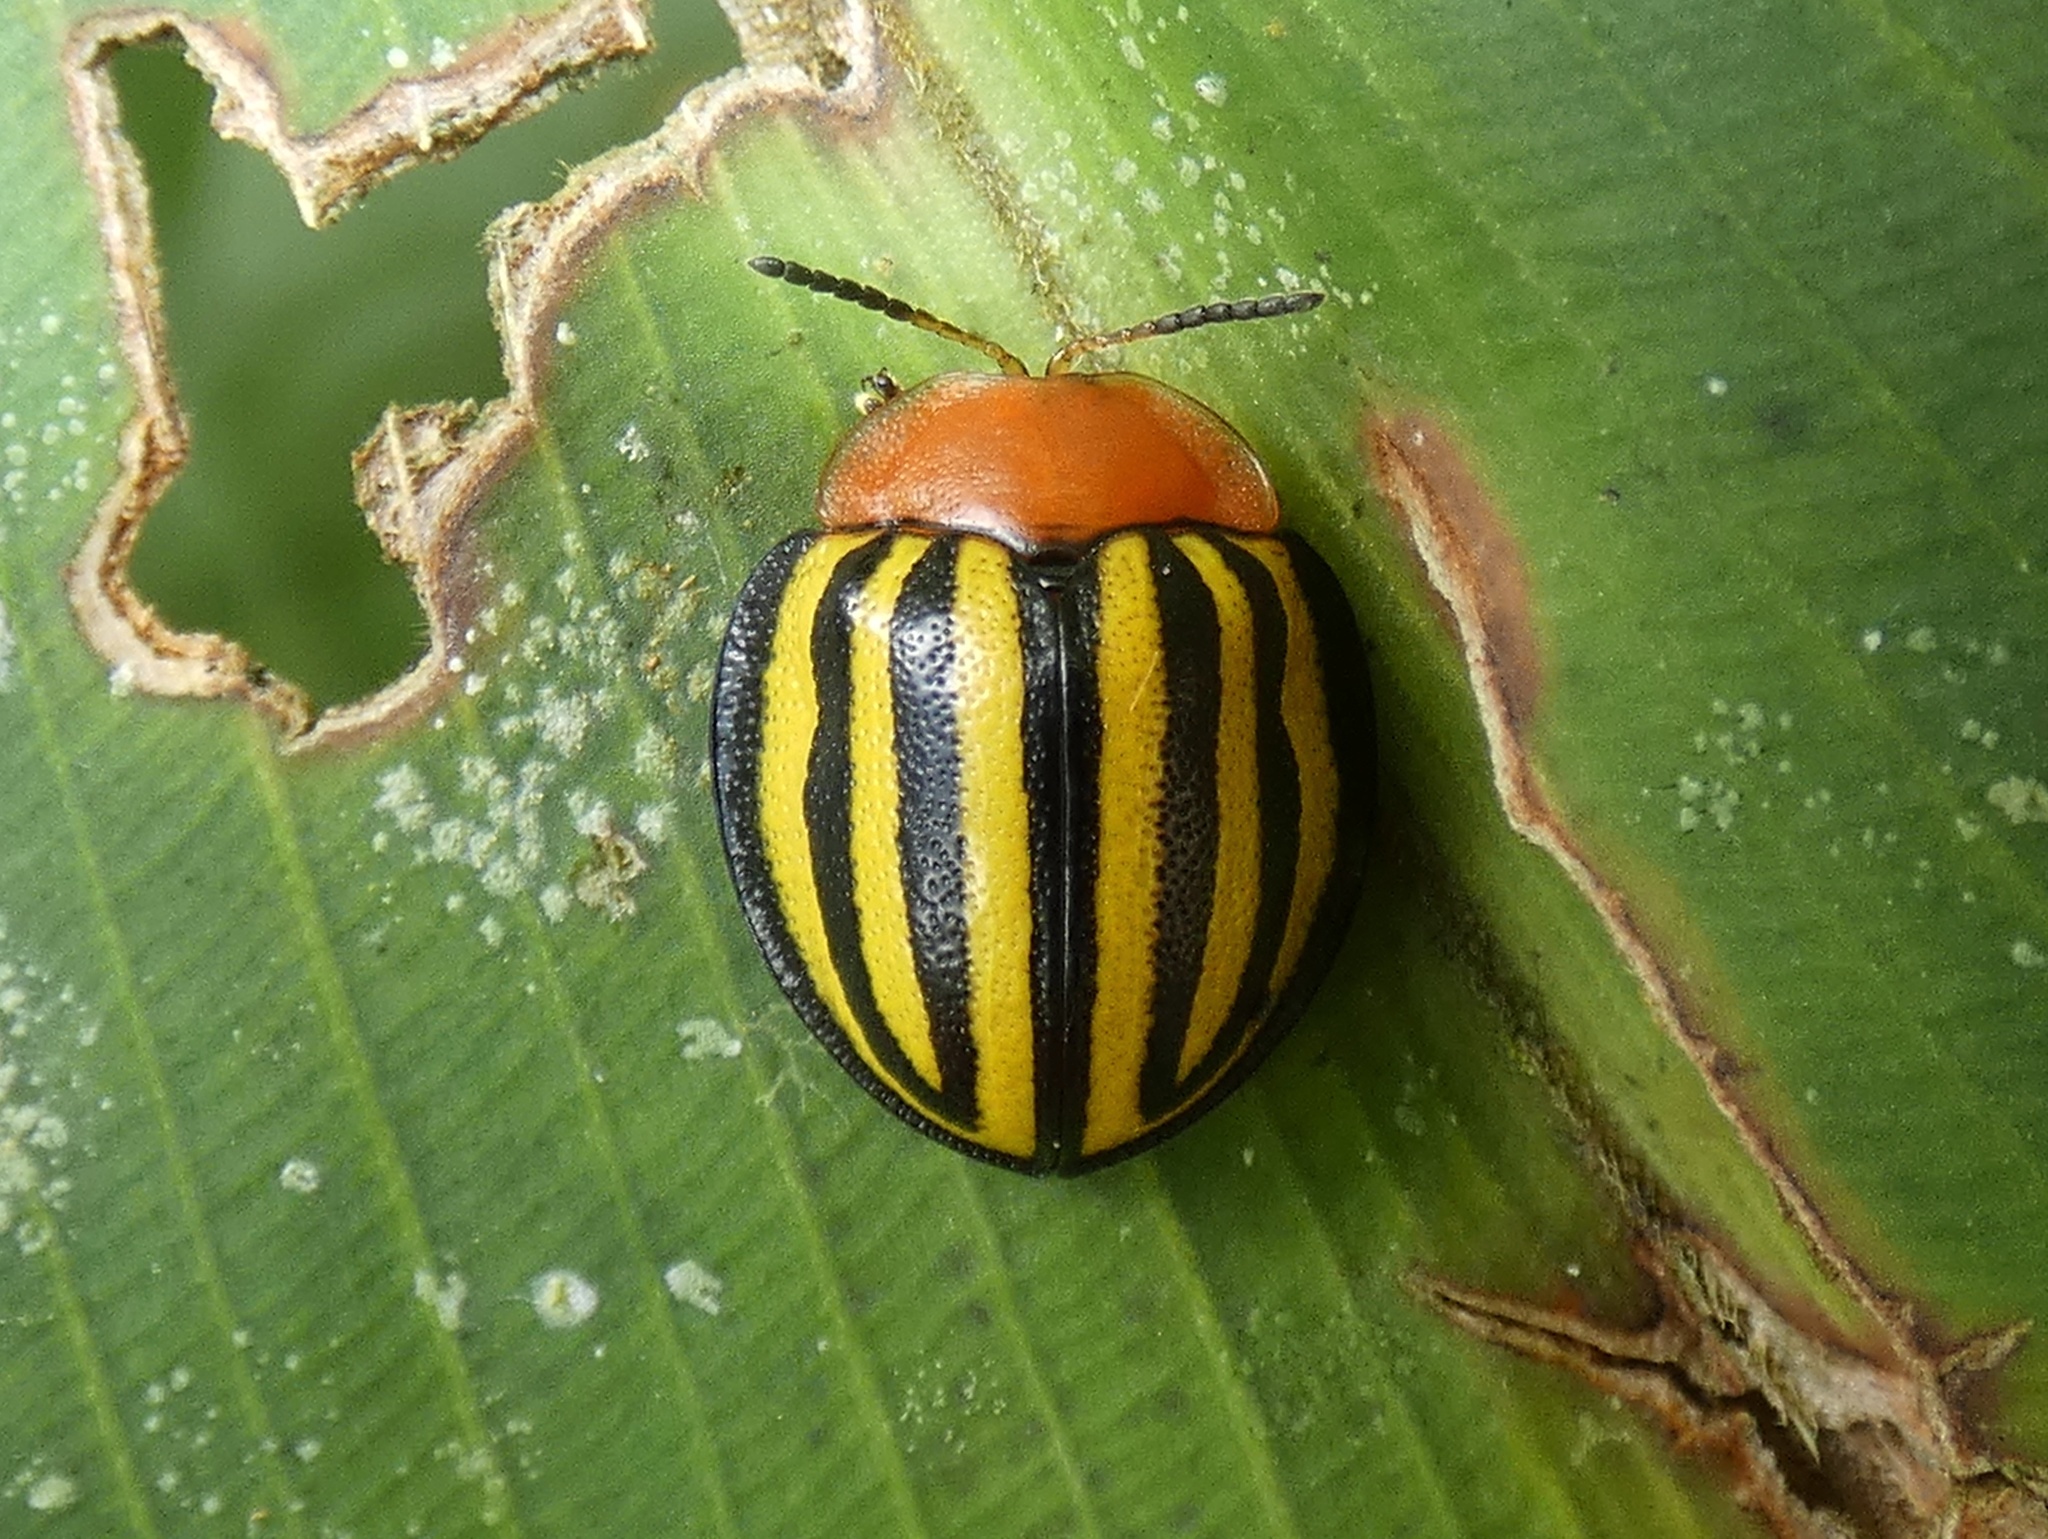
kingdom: Animalia
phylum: Arthropoda
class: Insecta
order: Coleoptera
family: Chrysomelidae
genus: Terpsis
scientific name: Terpsis quadrivittata
